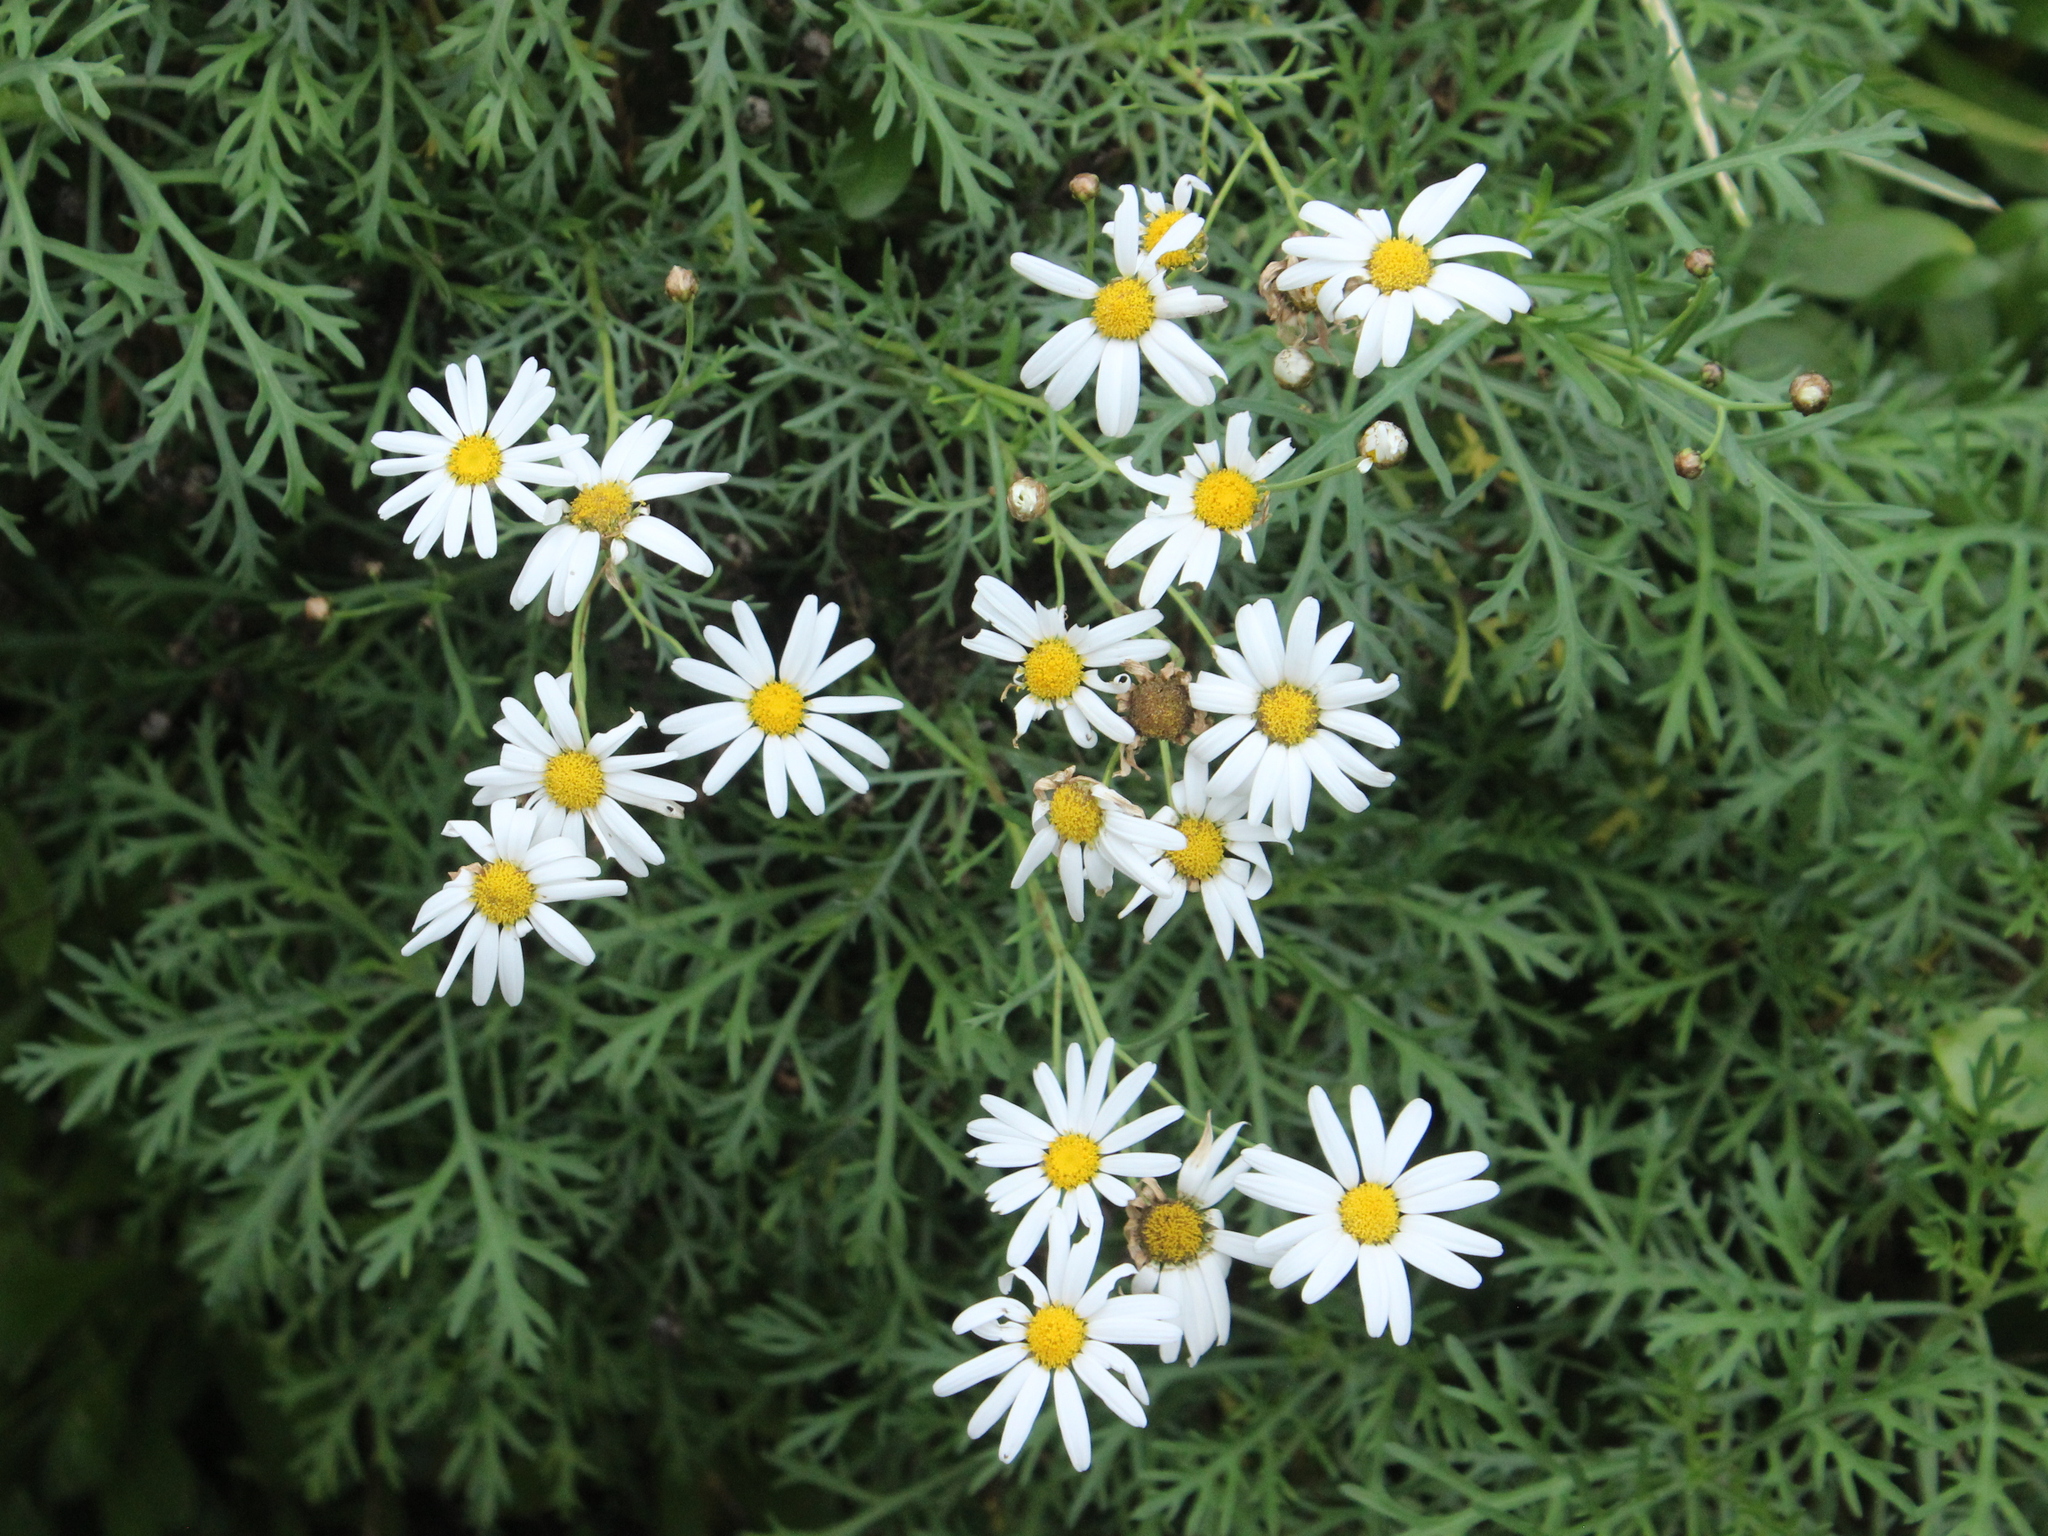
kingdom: Plantae
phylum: Tracheophyta
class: Magnoliopsida
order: Asterales
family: Asteraceae
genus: Argyranthemum
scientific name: Argyranthemum frutescens
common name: Paris daisy
